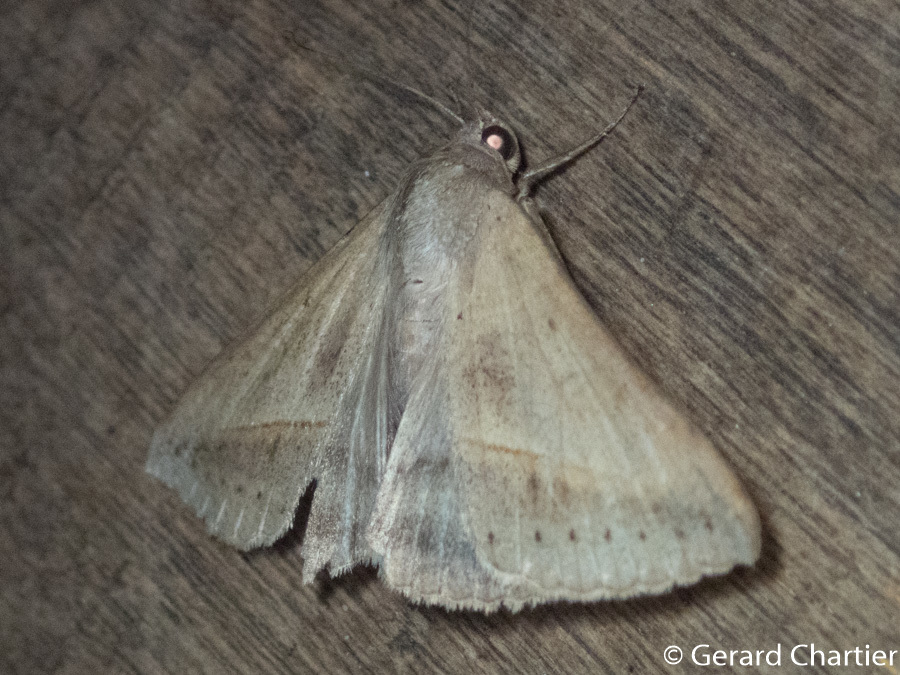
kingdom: Animalia
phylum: Arthropoda
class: Insecta
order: Lepidoptera
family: Erebidae
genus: Mocis
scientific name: Mocis frugalis
